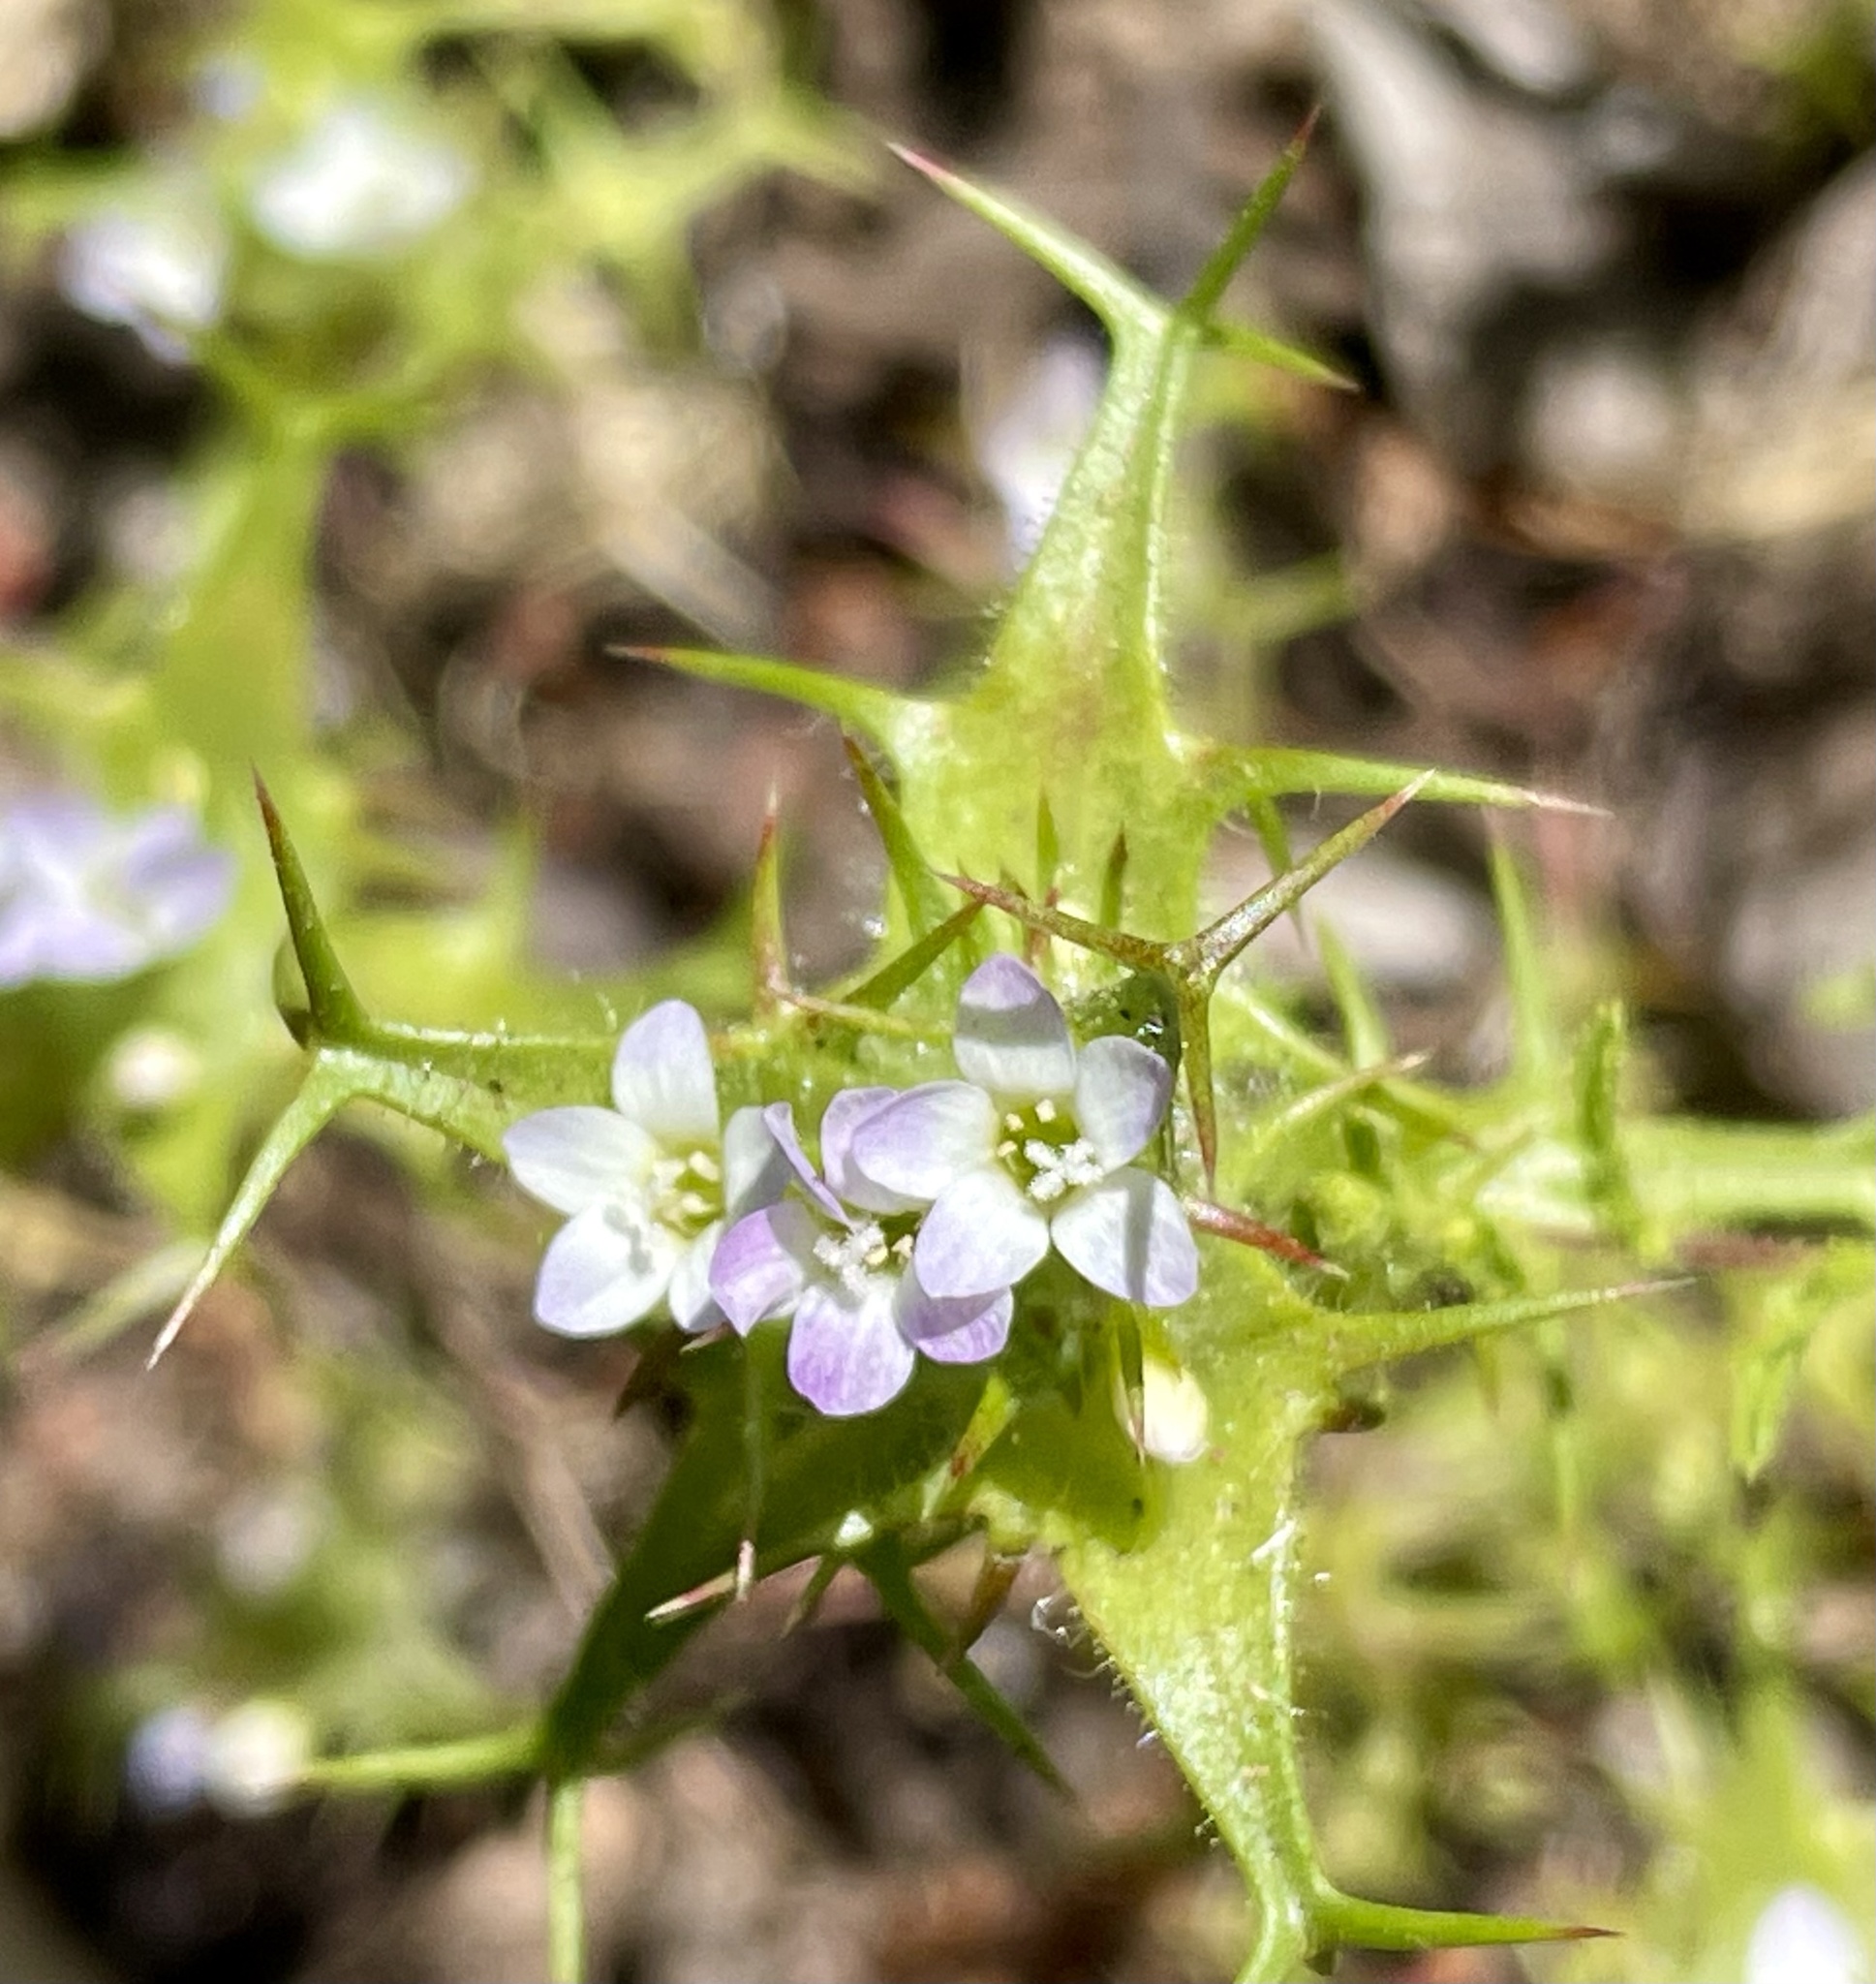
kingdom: Plantae
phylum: Tracheophyta
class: Magnoliopsida
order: Ericales
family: Polemoniaceae
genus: Navarretia
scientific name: Navarretia hamata
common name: Hooked navarretia
